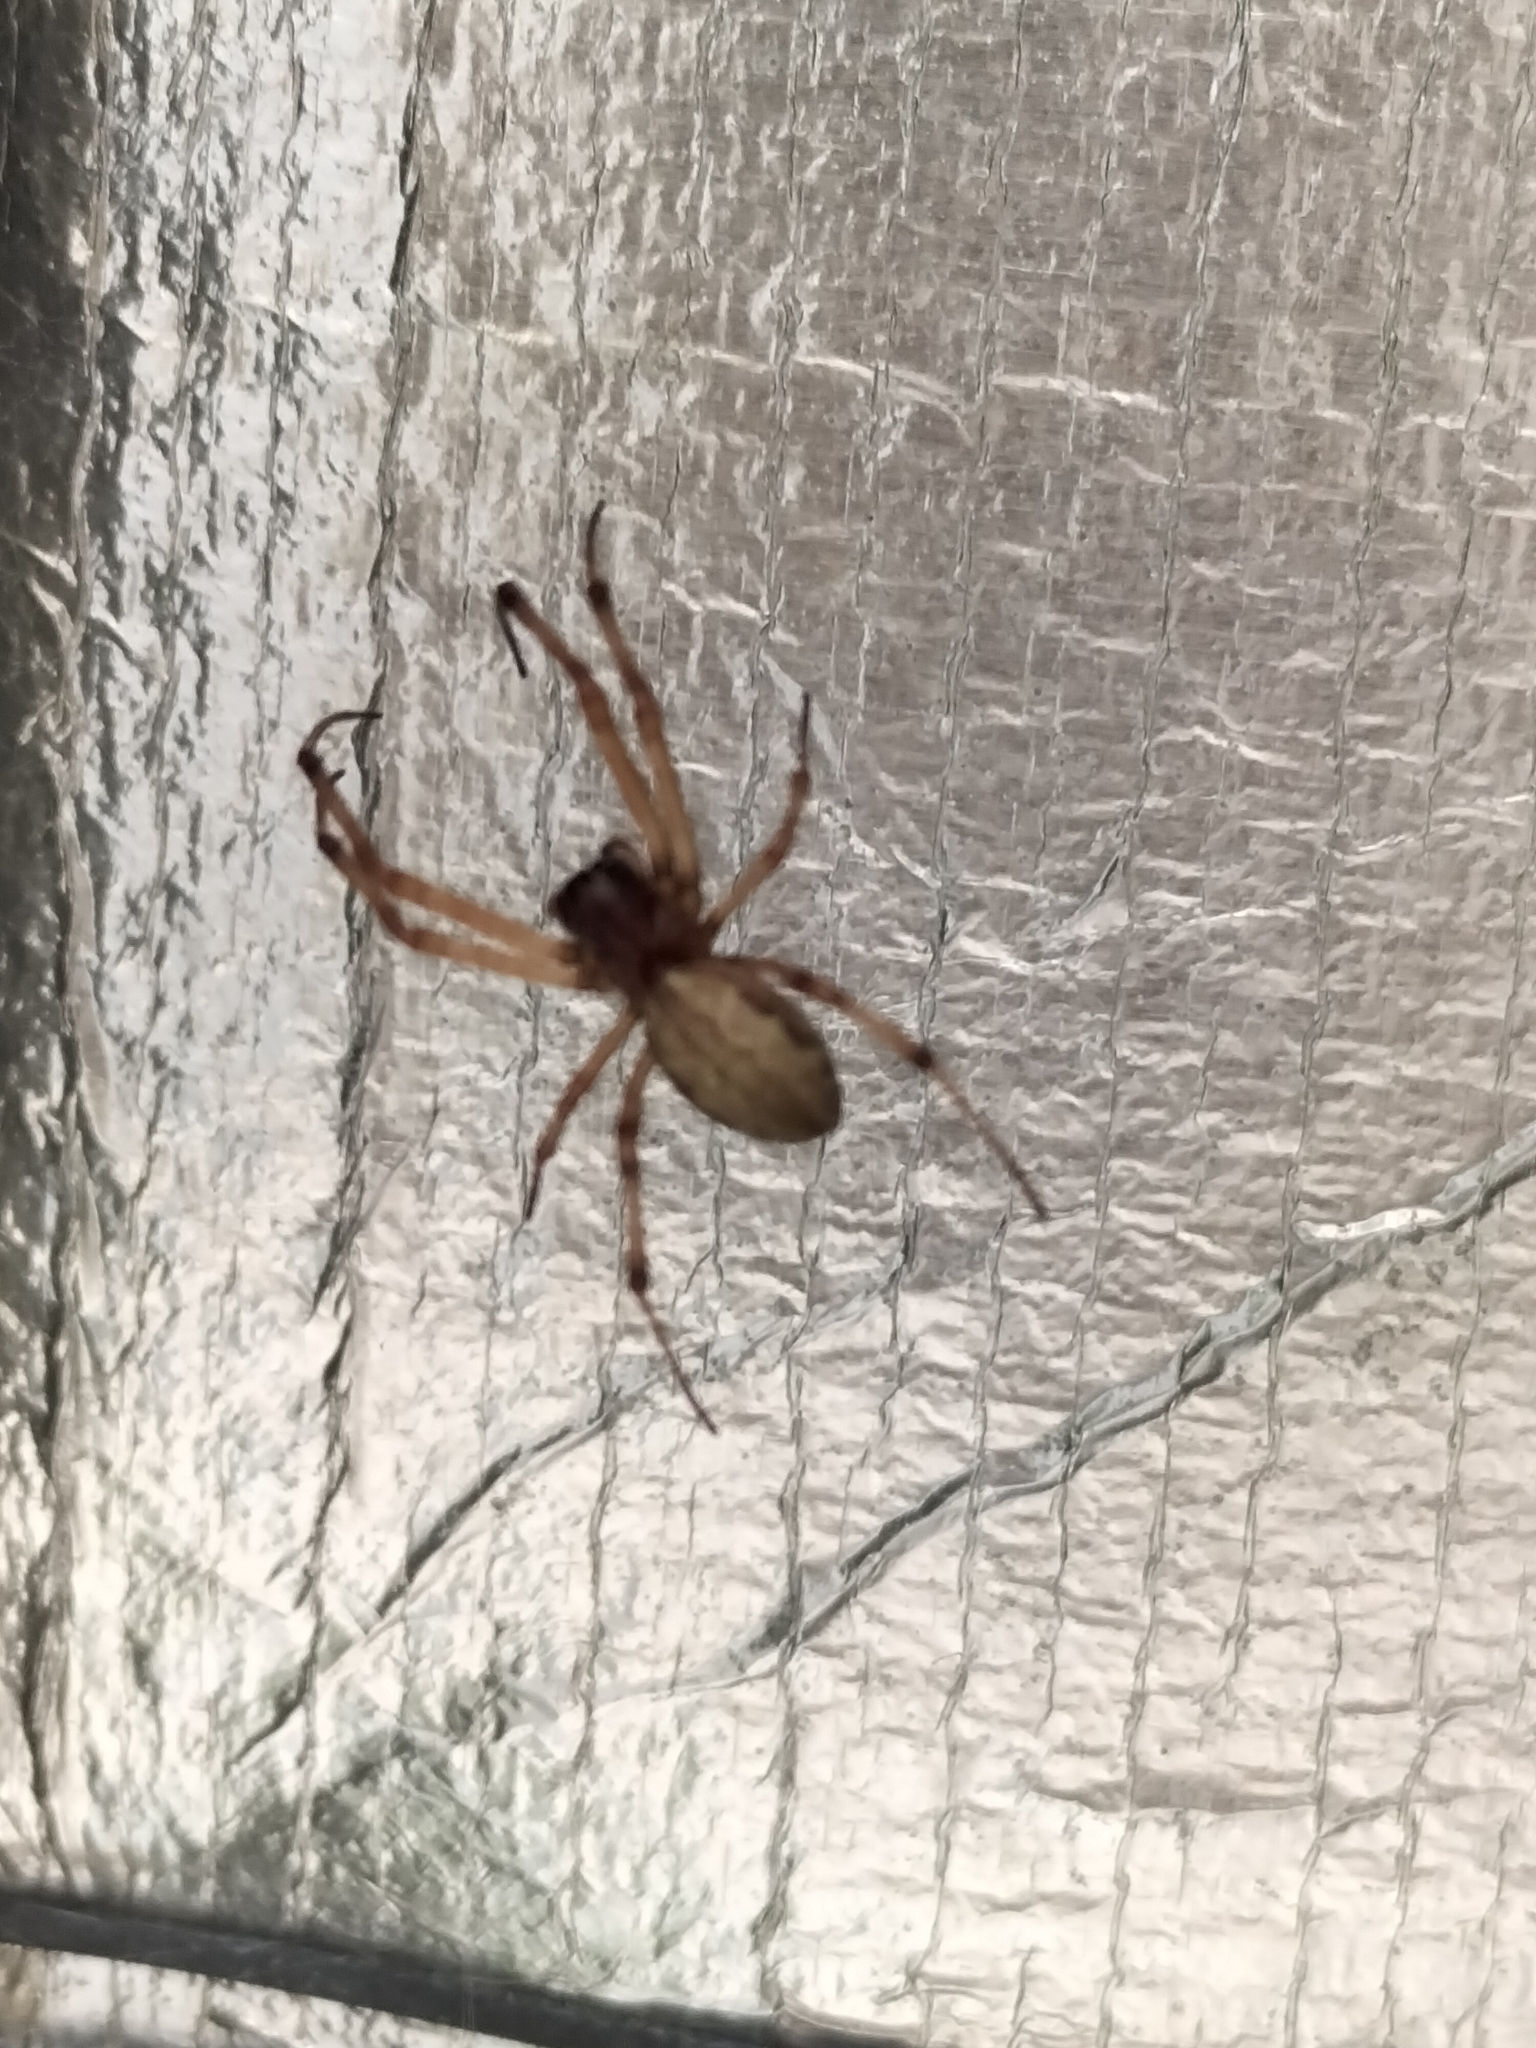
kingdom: Animalia
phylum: Arthropoda
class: Arachnida
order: Araneae
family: Araneidae
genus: Nephilengys
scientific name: Nephilengys papuana
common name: Papuan hermit spider
